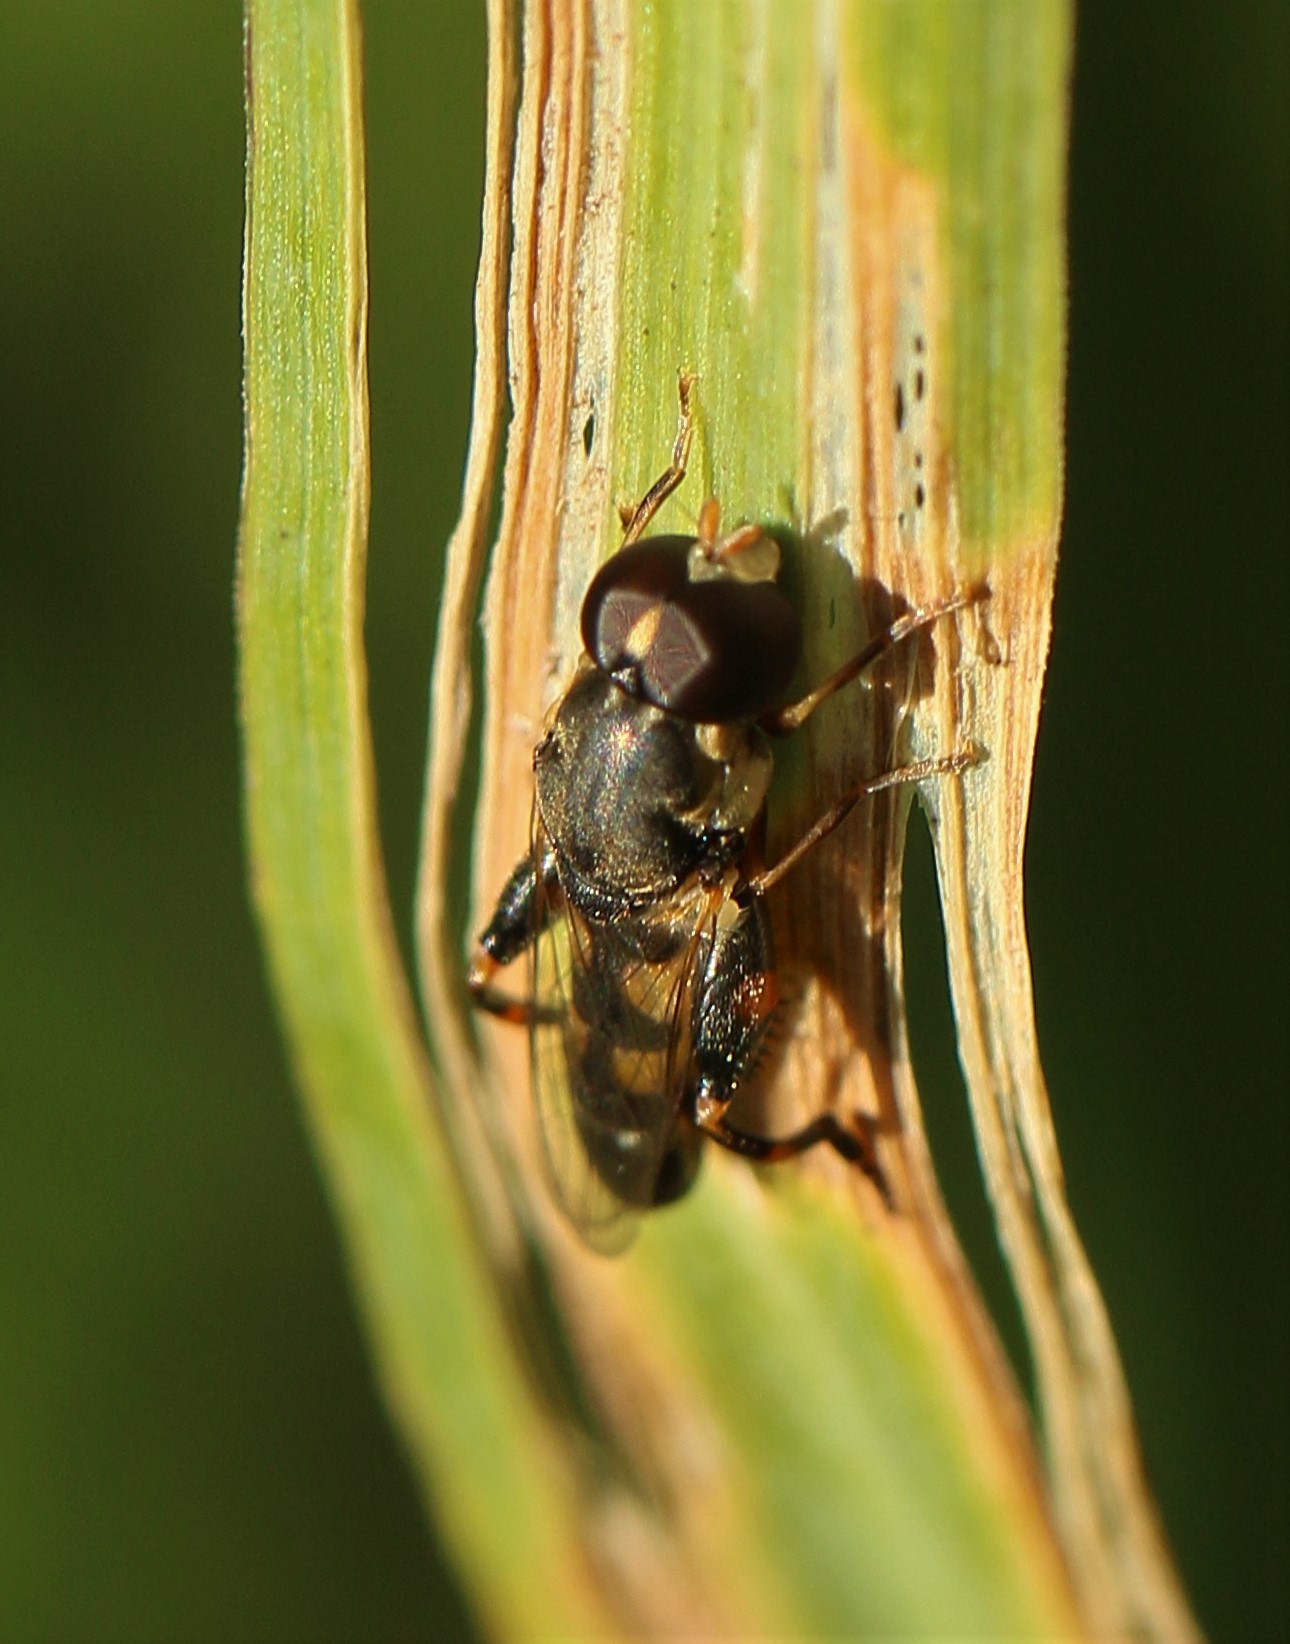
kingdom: Animalia
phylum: Arthropoda
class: Insecta
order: Diptera
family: Syrphidae
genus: Syritta
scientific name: Syritta pipiens
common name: Hover fly
